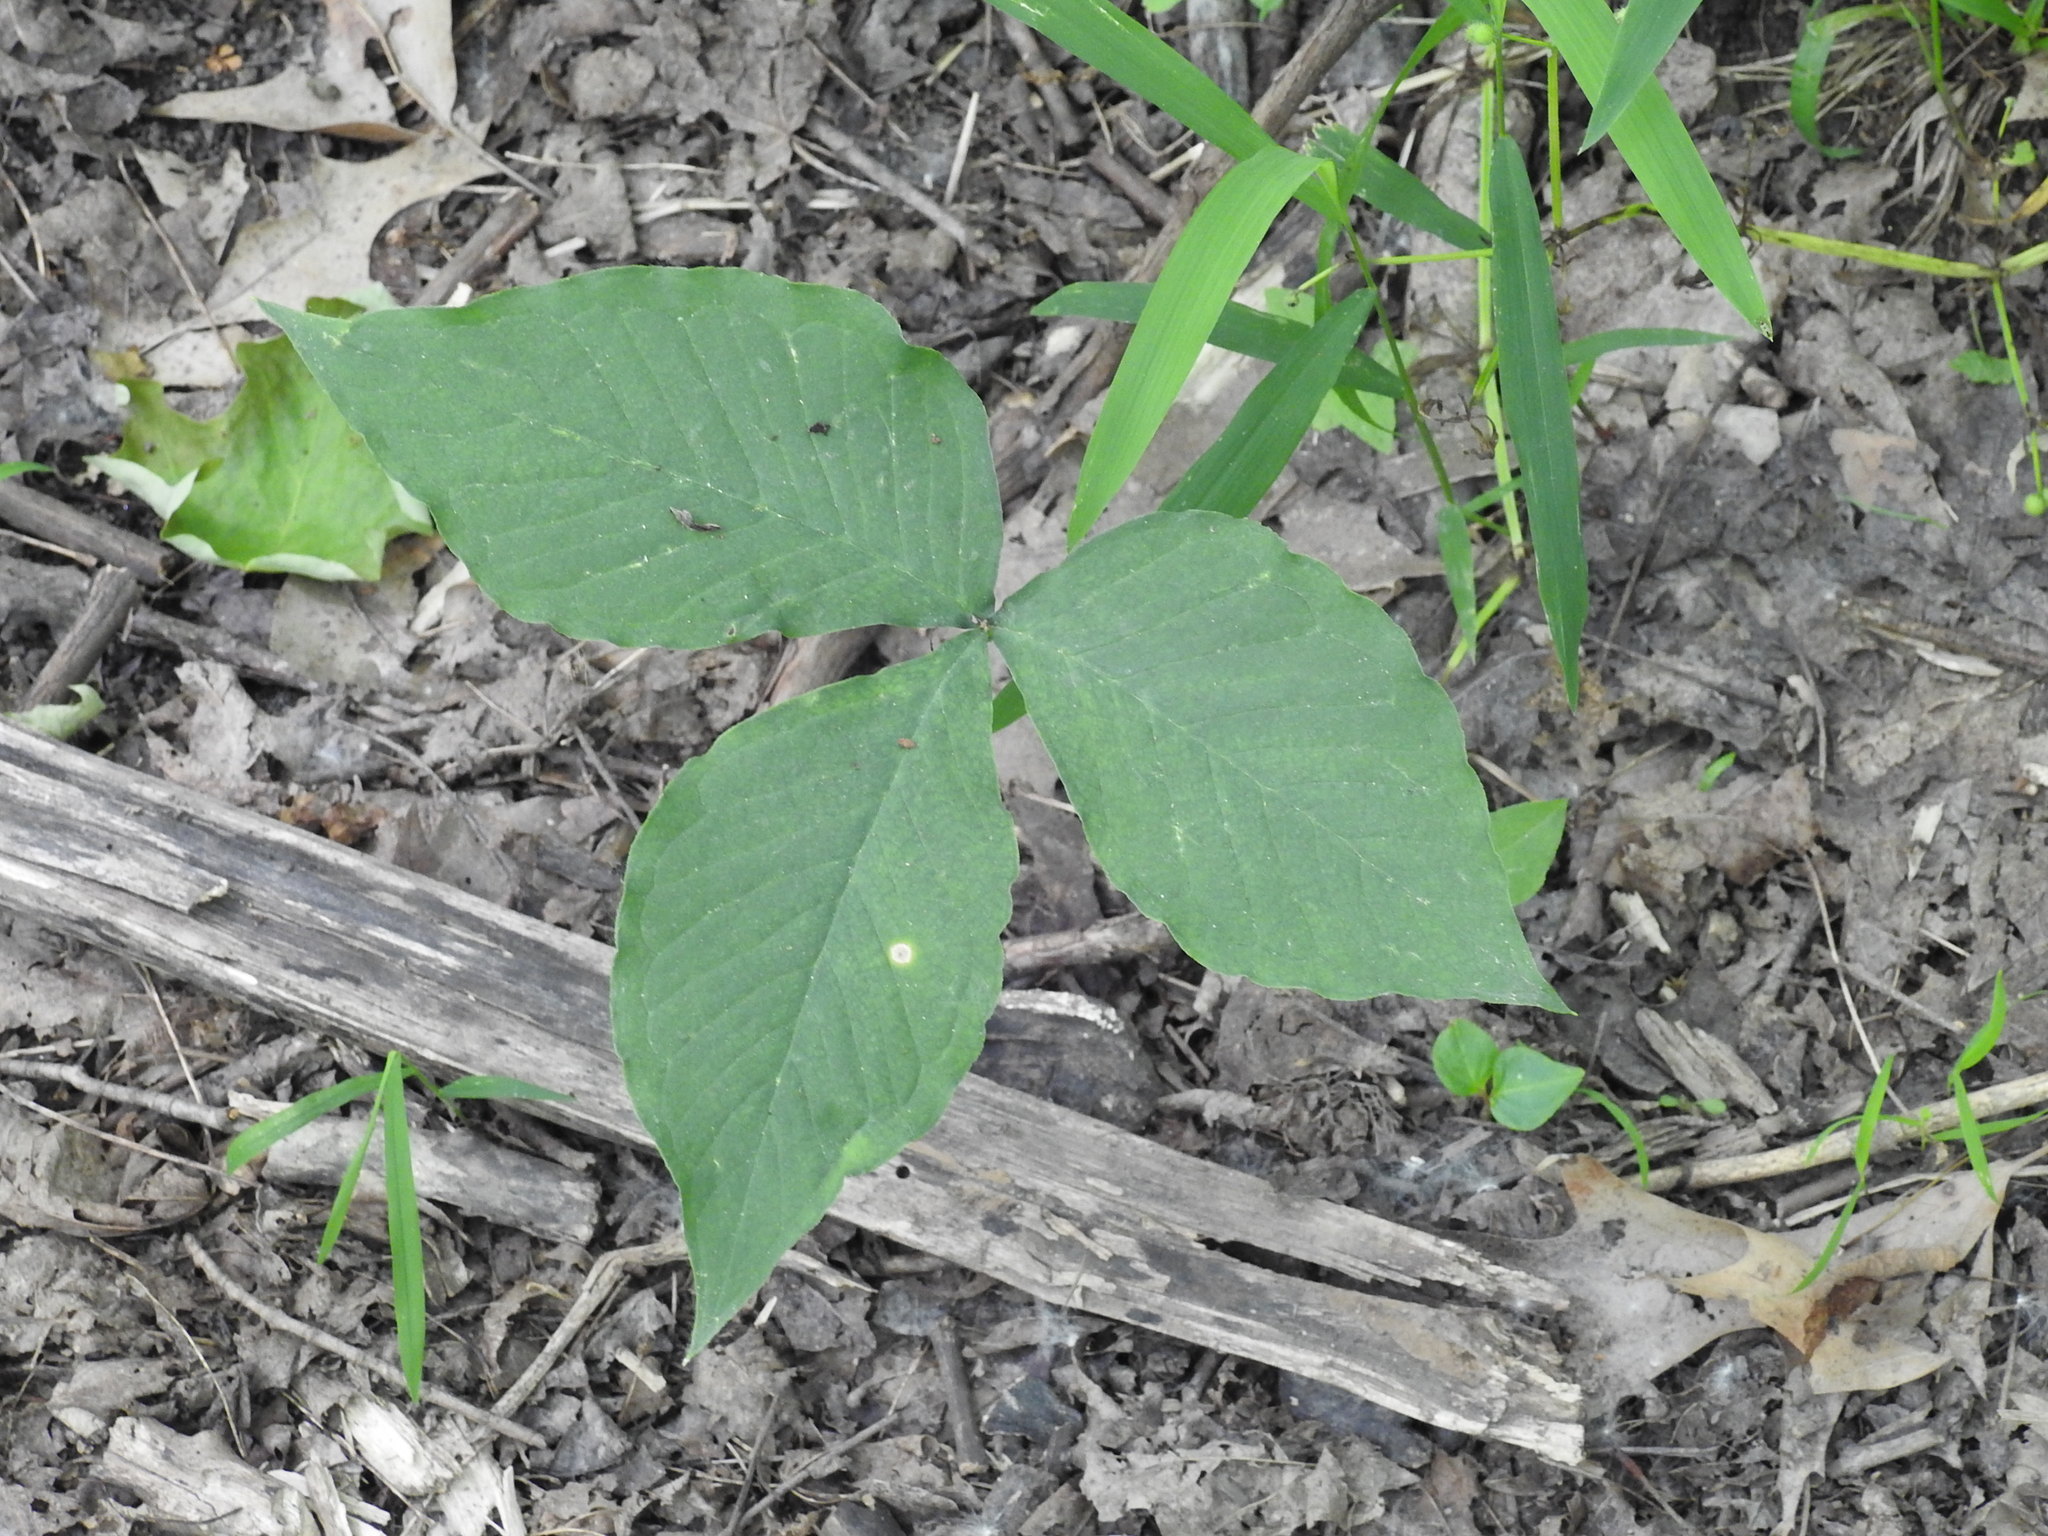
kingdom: Plantae
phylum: Tracheophyta
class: Liliopsida
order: Alismatales
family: Araceae
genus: Arisaema
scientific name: Arisaema triphyllum
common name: Jack-in-the-pulpit
